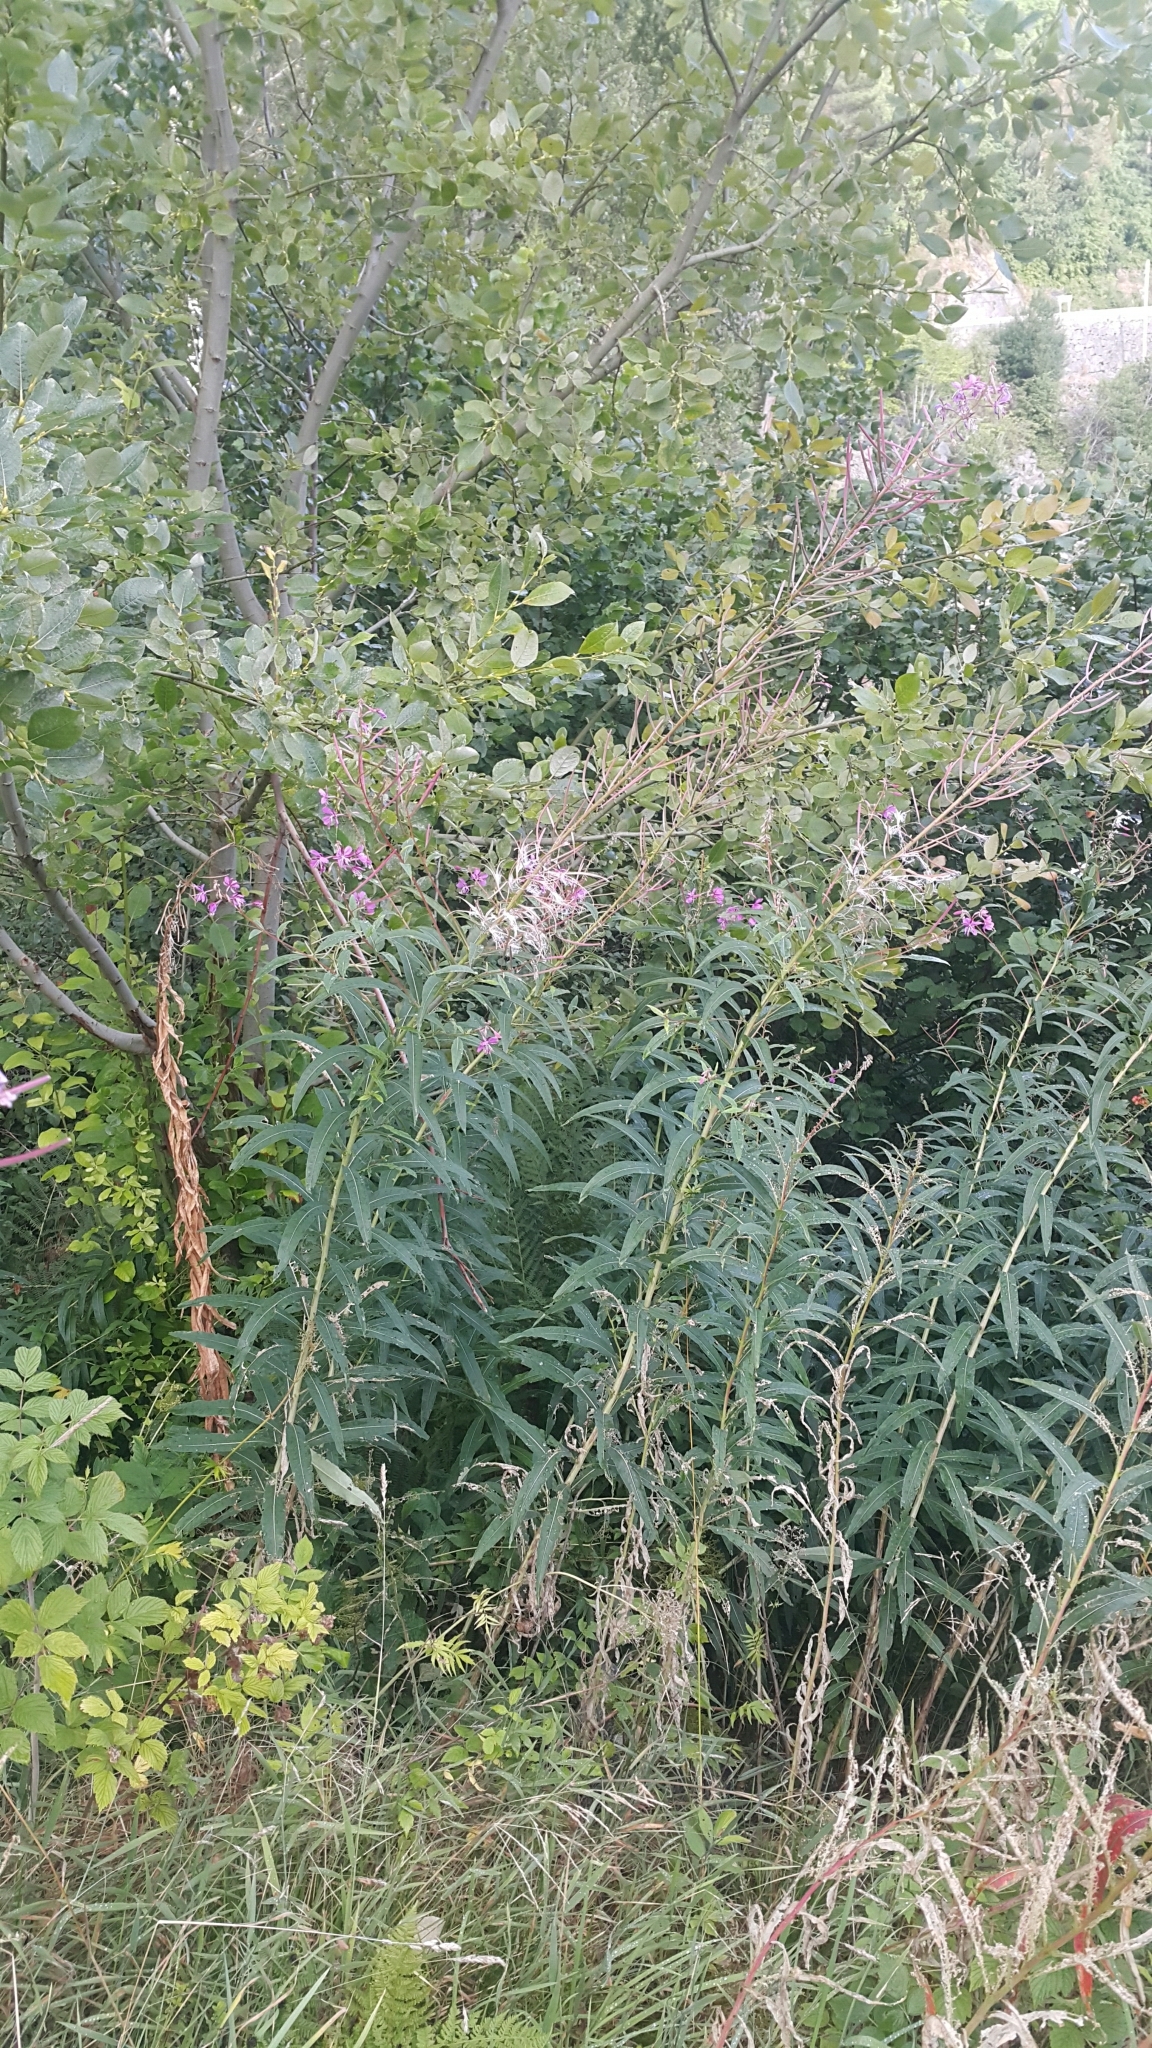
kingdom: Plantae
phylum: Tracheophyta
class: Magnoliopsida
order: Myrtales
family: Onagraceae
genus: Chamaenerion
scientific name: Chamaenerion angustifolium
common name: Fireweed
